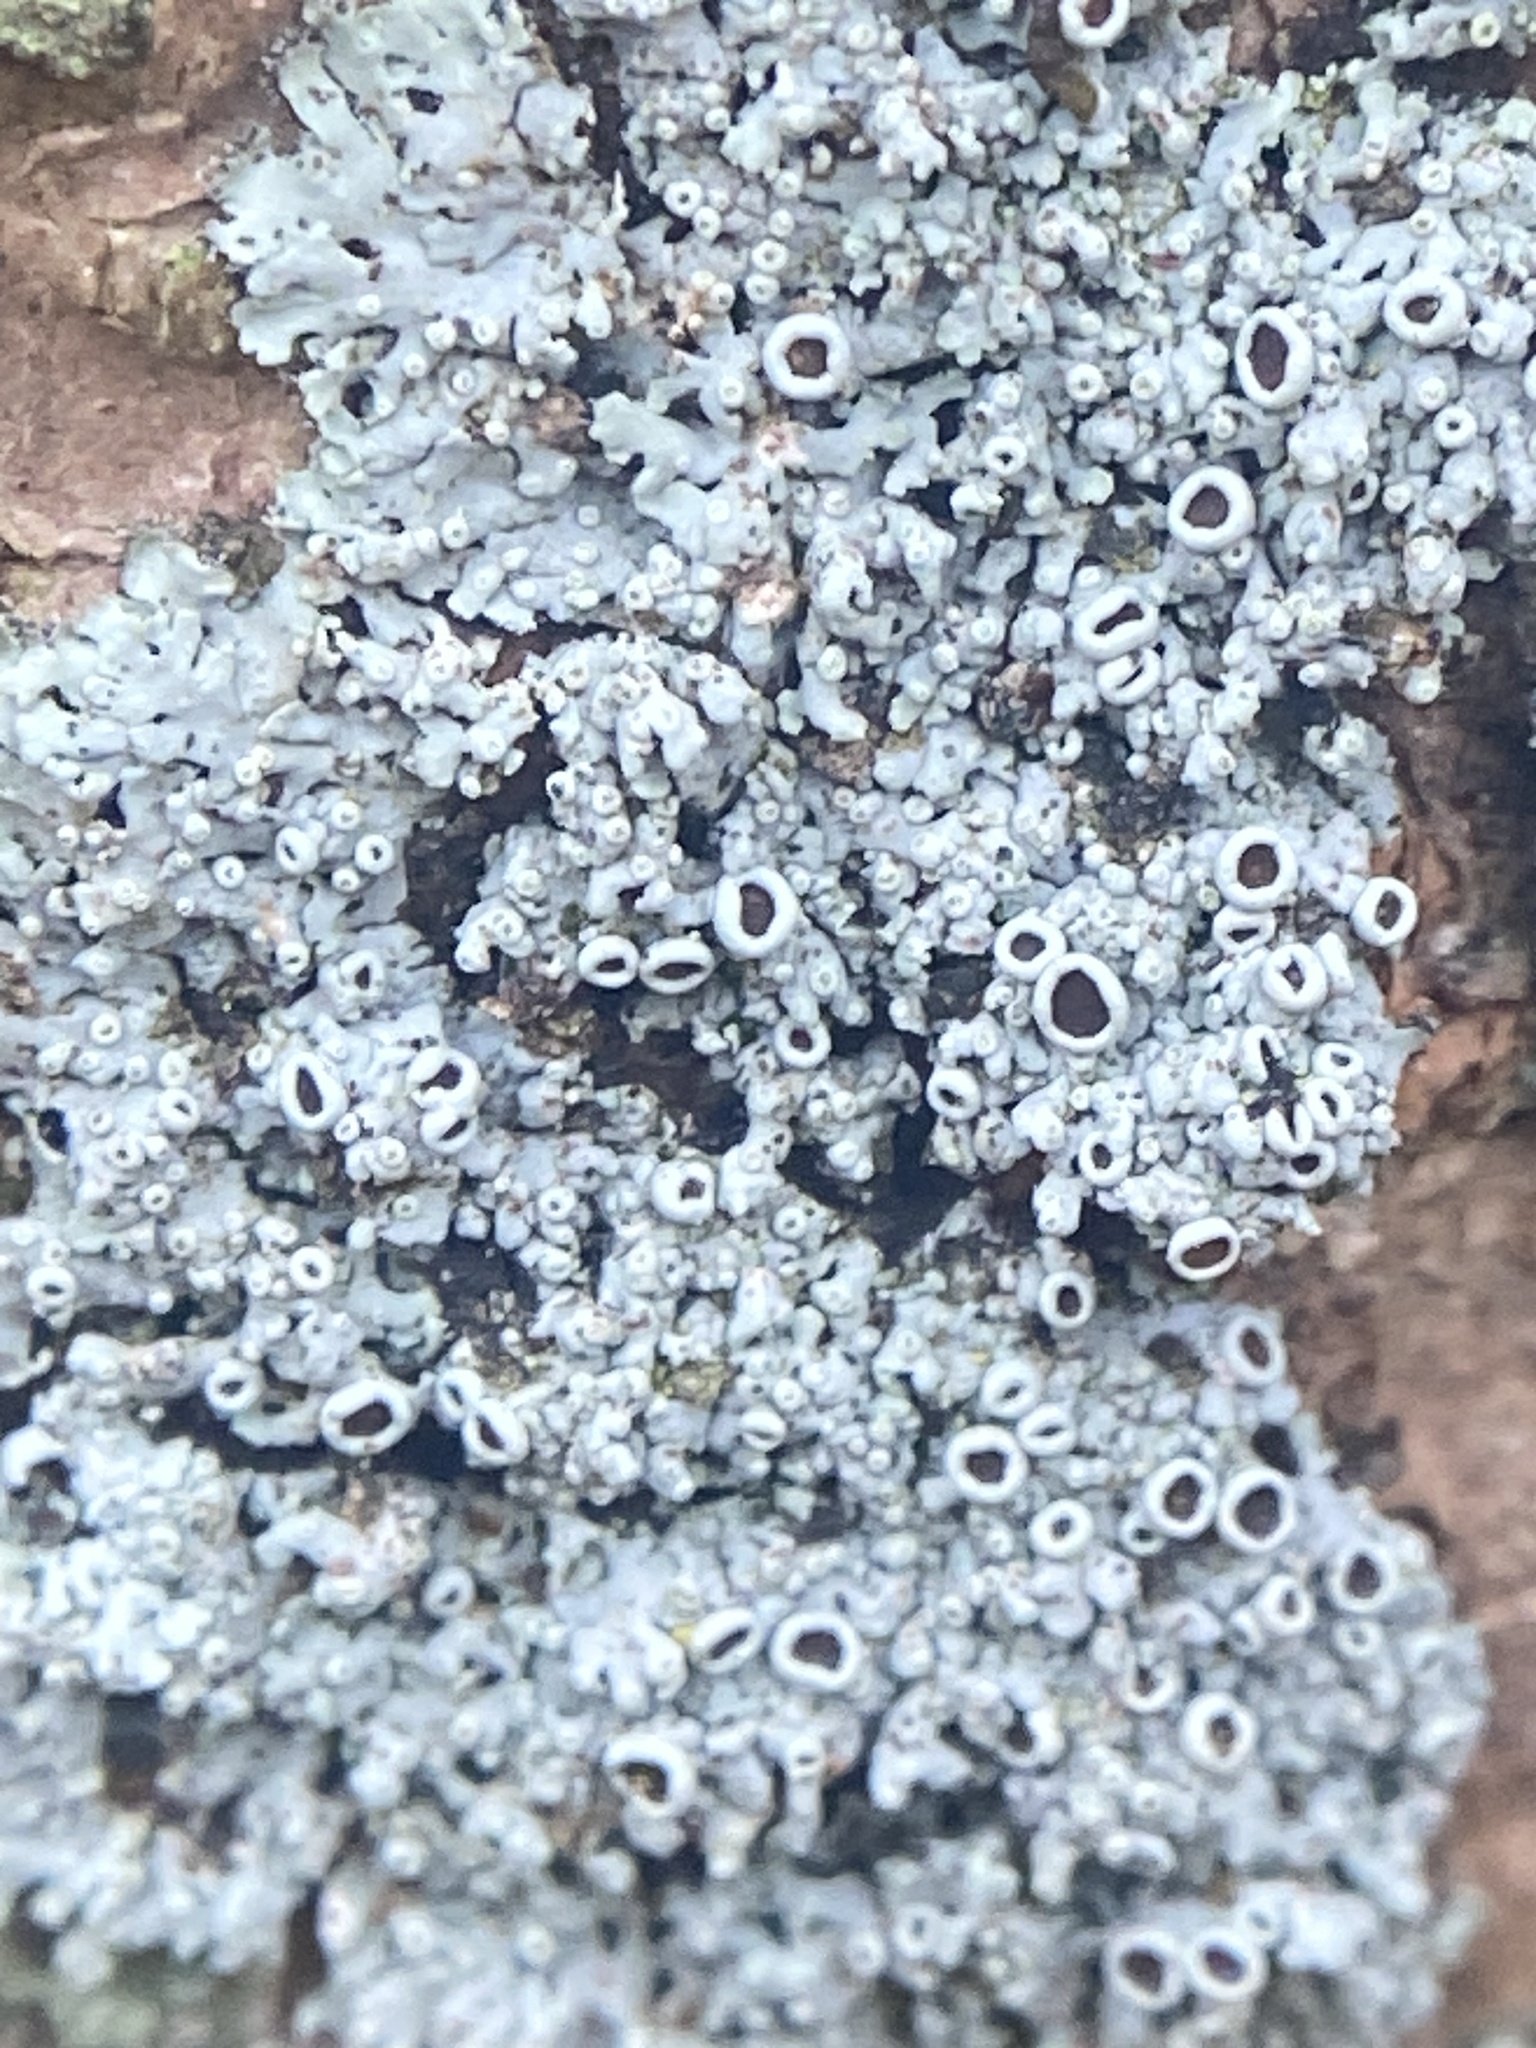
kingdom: Fungi
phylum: Ascomycota
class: Lecanoromycetes
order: Caliciales
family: Physciaceae
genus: Physcia
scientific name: Physcia pumilior
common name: Lesser gray legs
